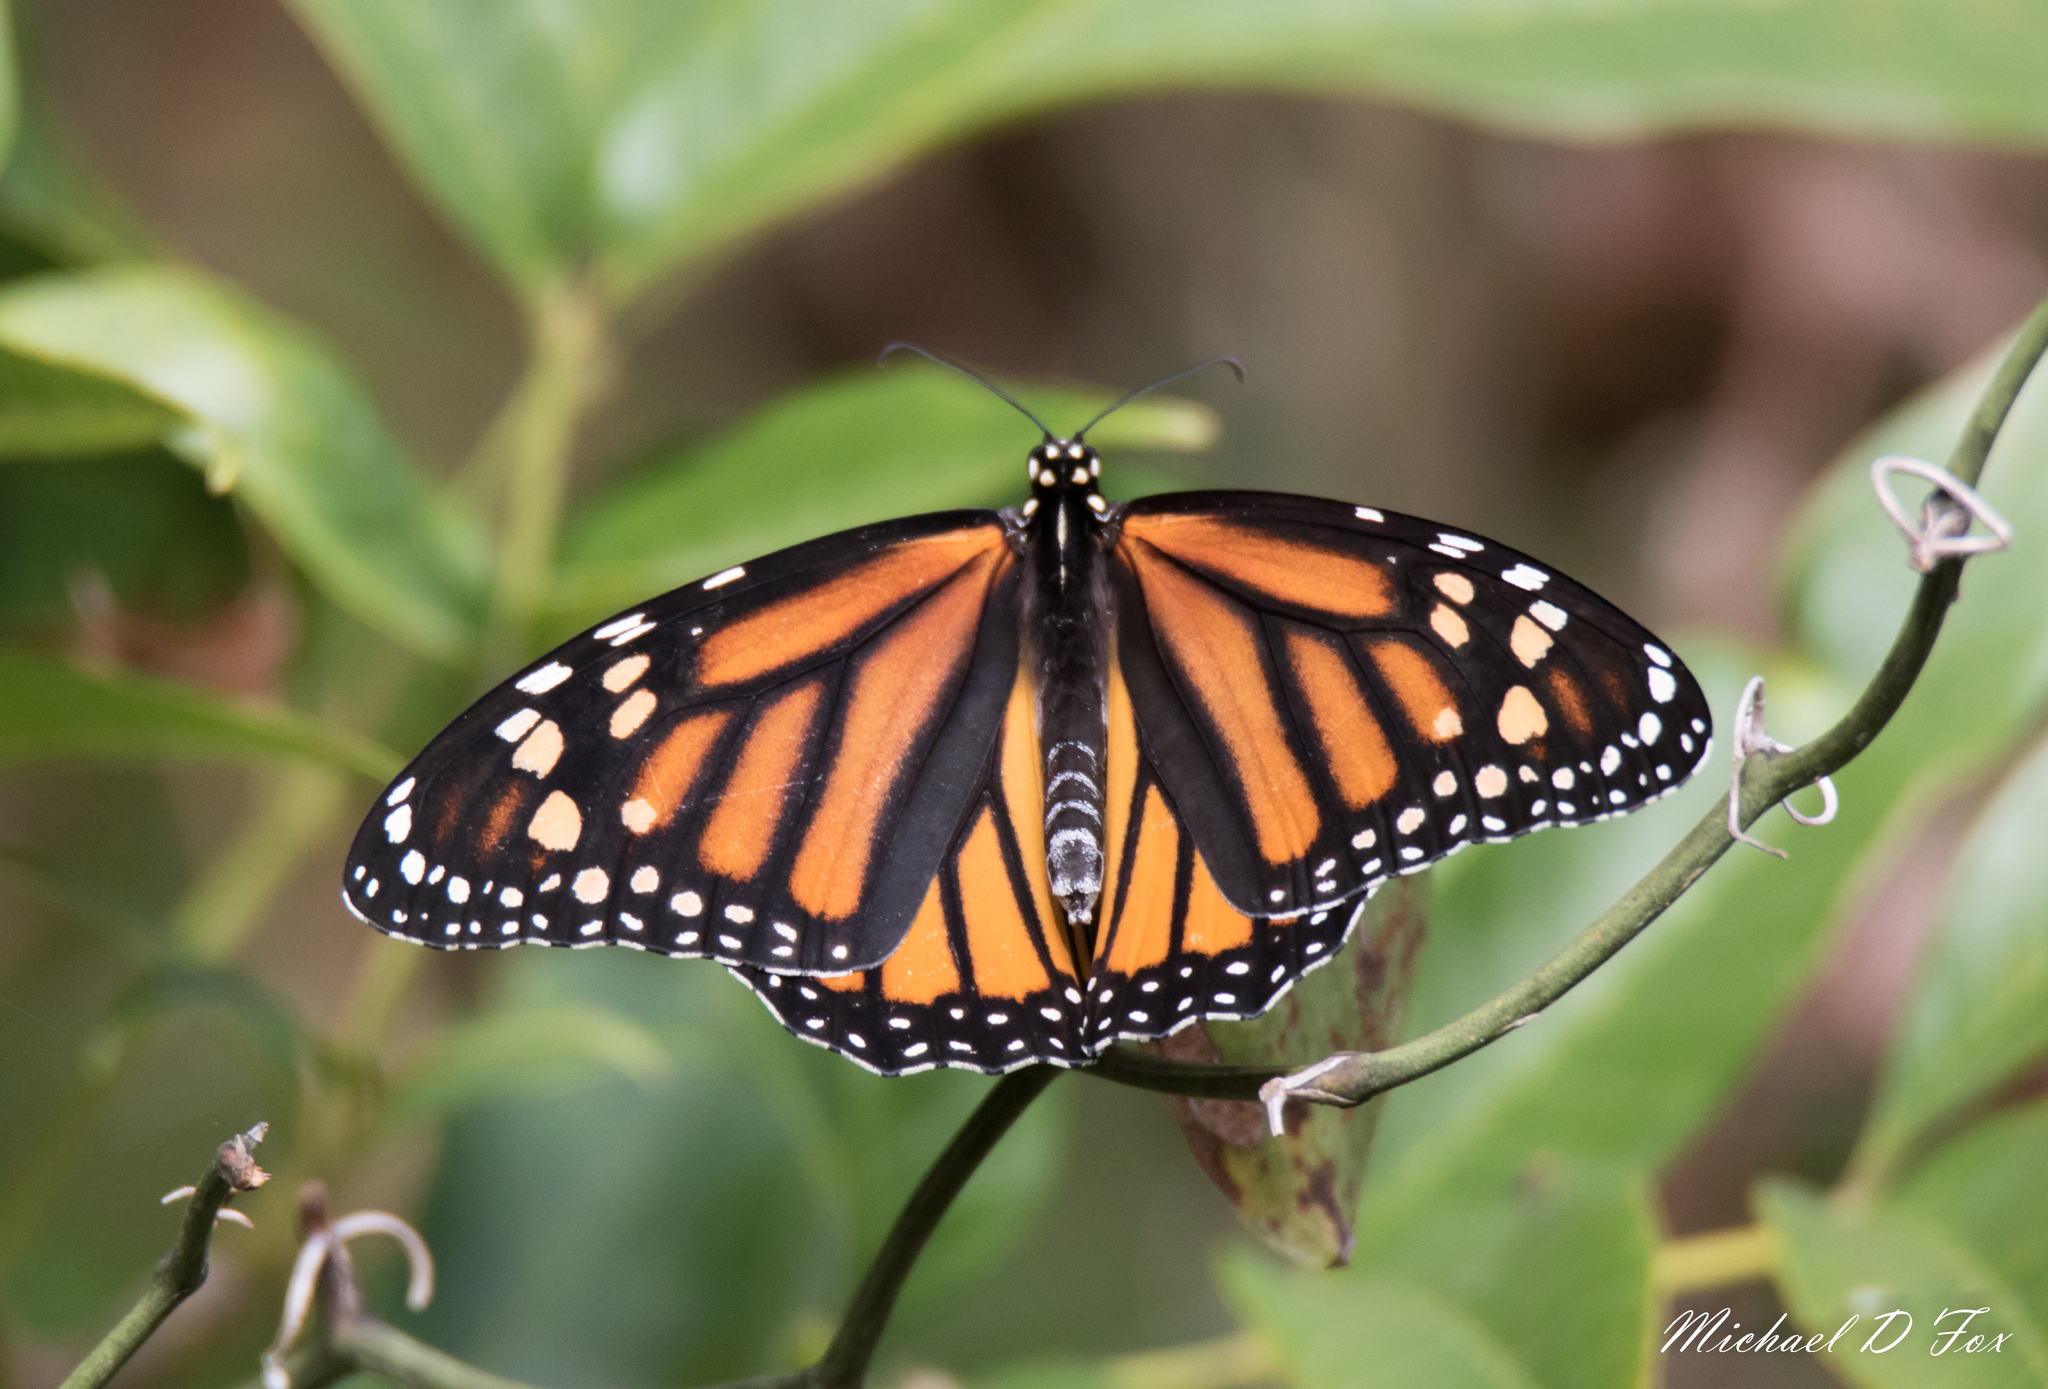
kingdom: Animalia
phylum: Arthropoda
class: Insecta
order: Lepidoptera
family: Nymphalidae
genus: Danaus
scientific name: Danaus plexippus
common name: Monarch
